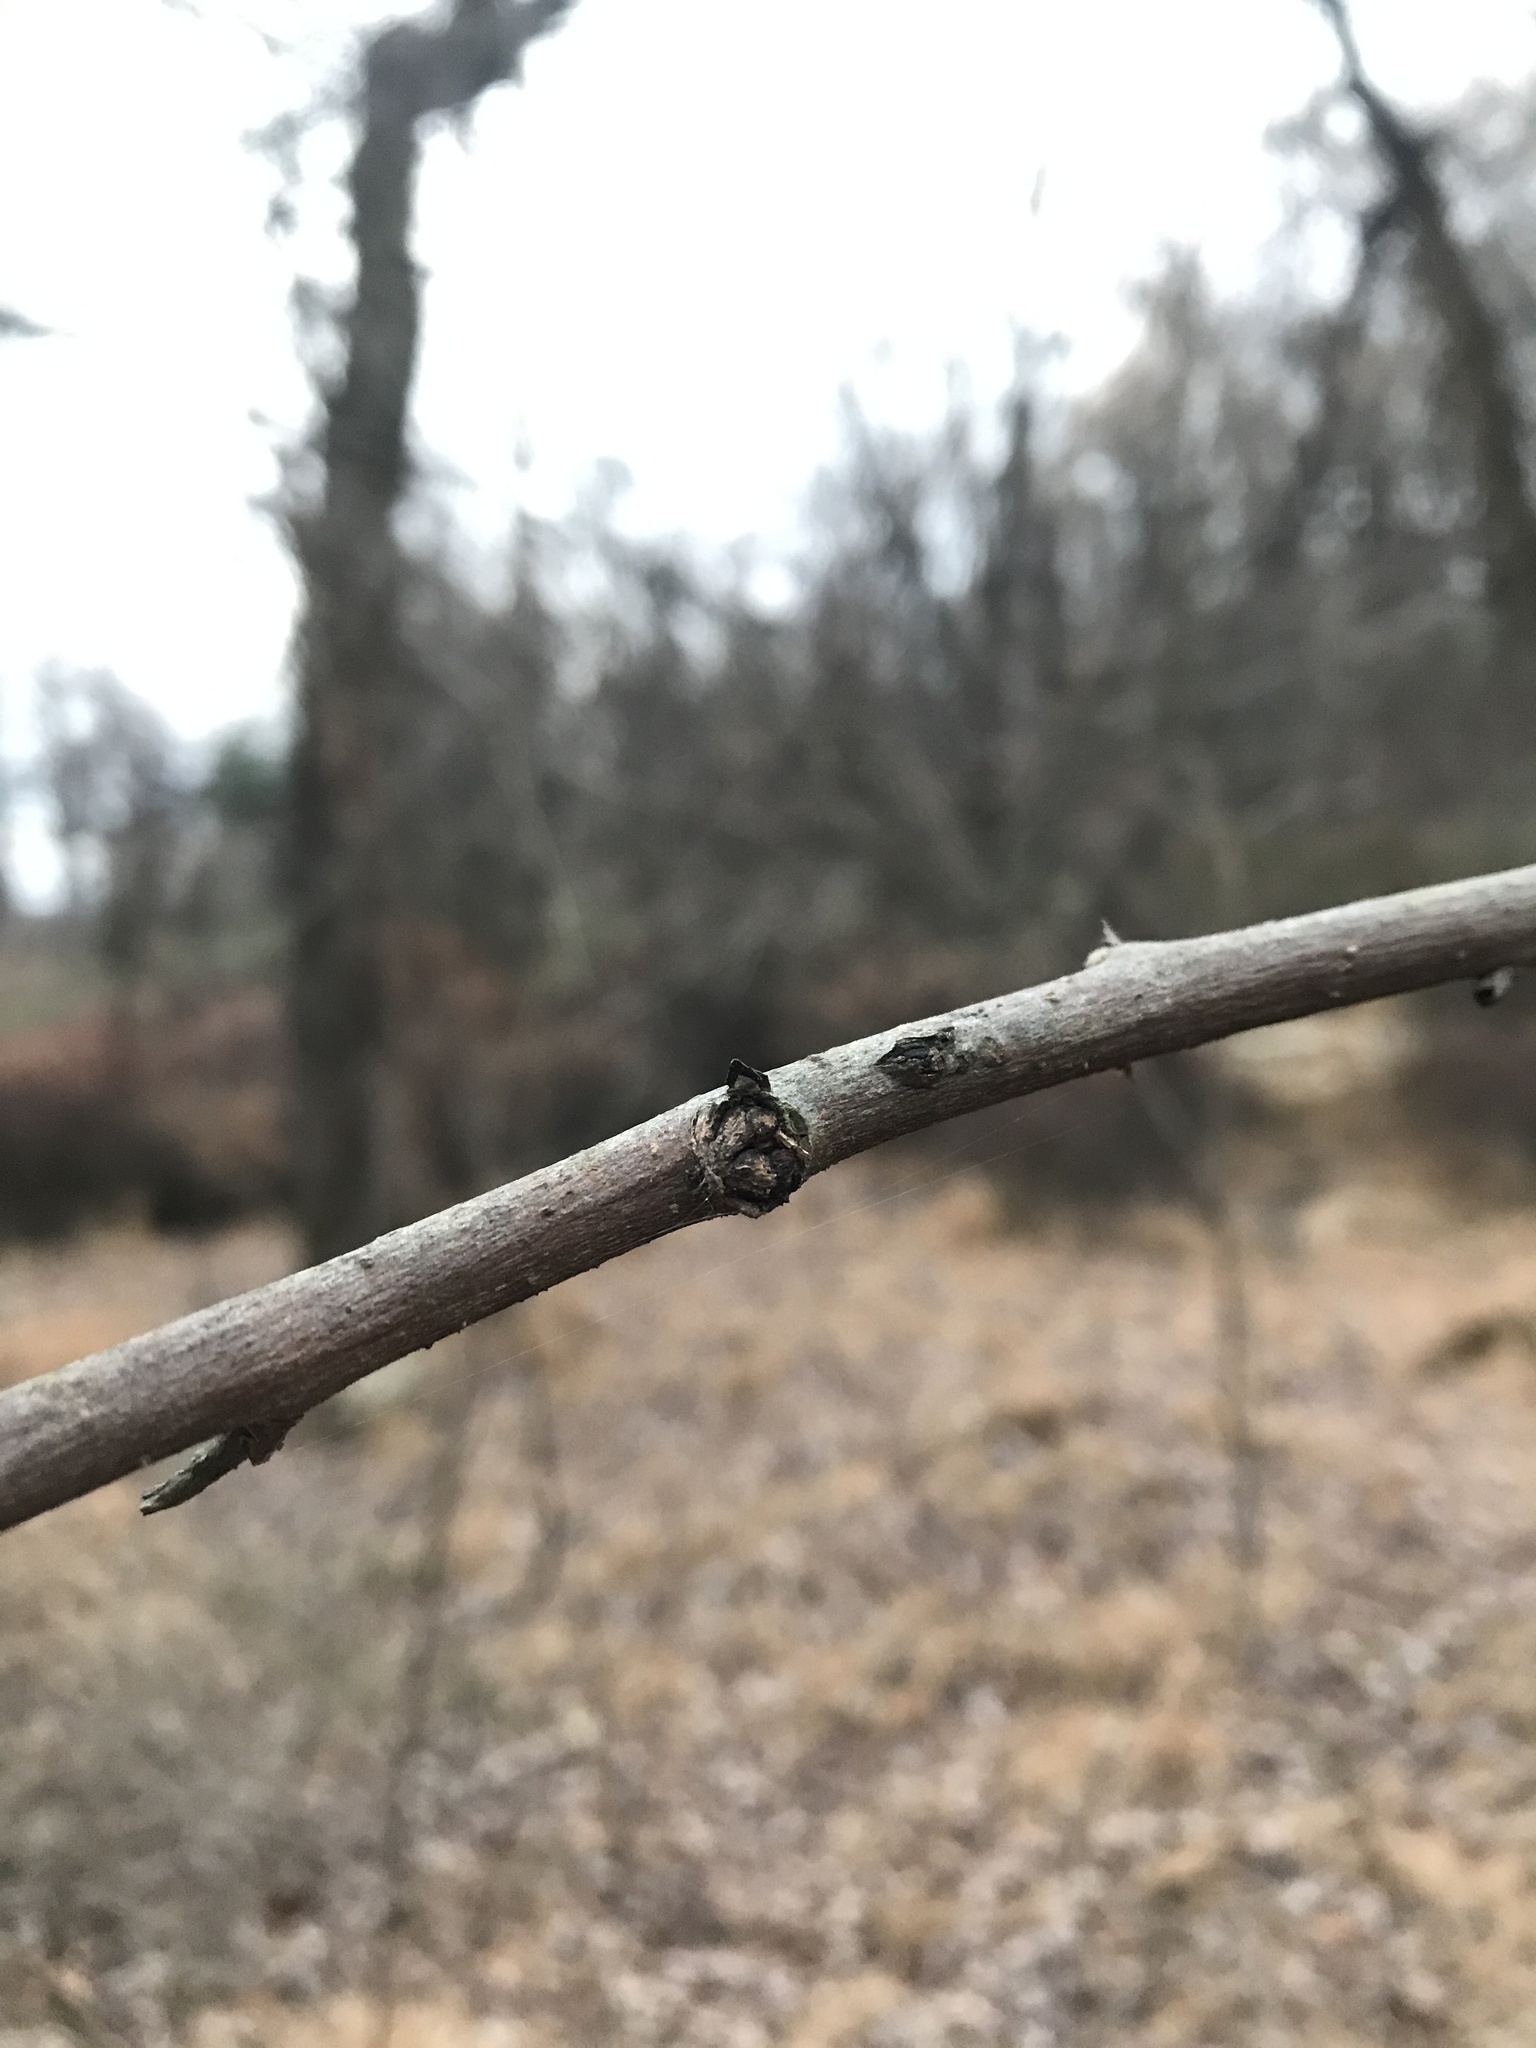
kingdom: Plantae
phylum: Tracheophyta
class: Magnoliopsida
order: Ericales
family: Ebenaceae
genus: Diospyros
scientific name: Diospyros virginiana
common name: Persimmon
